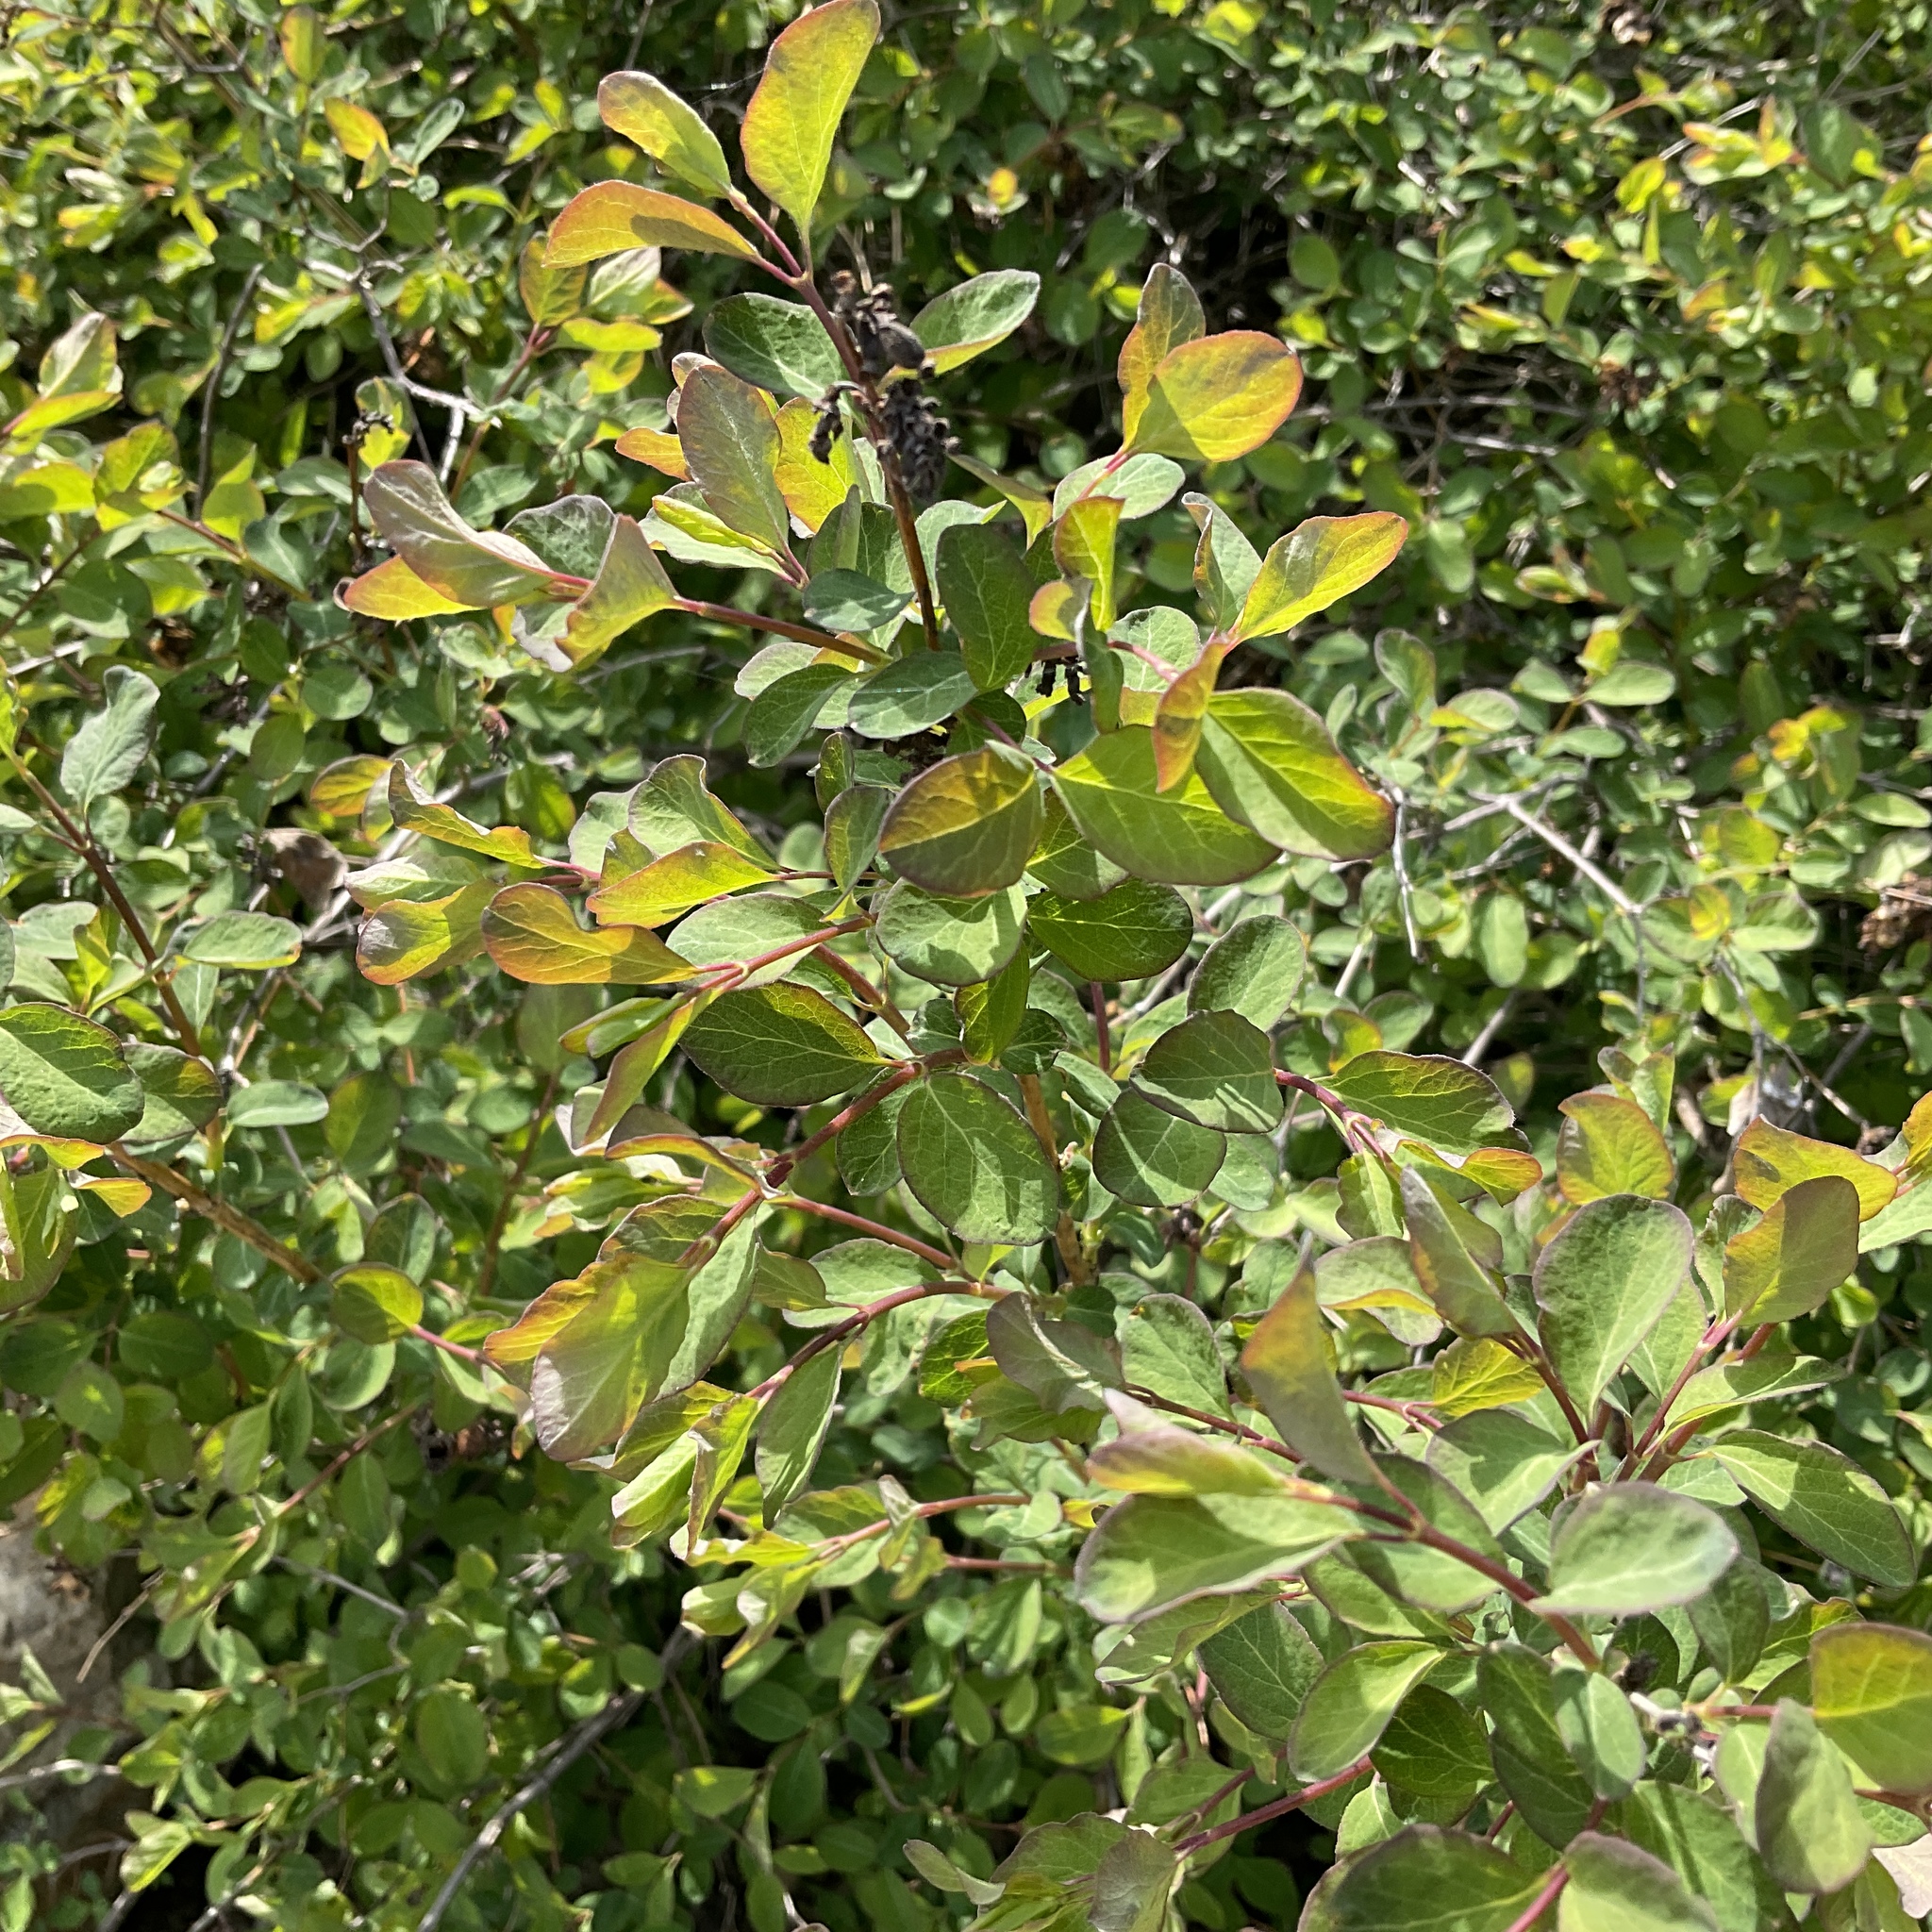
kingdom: Plantae
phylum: Tracheophyta
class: Magnoliopsida
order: Dipsacales
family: Caprifoliaceae
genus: Symphoricarpos
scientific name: Symphoricarpos albus
